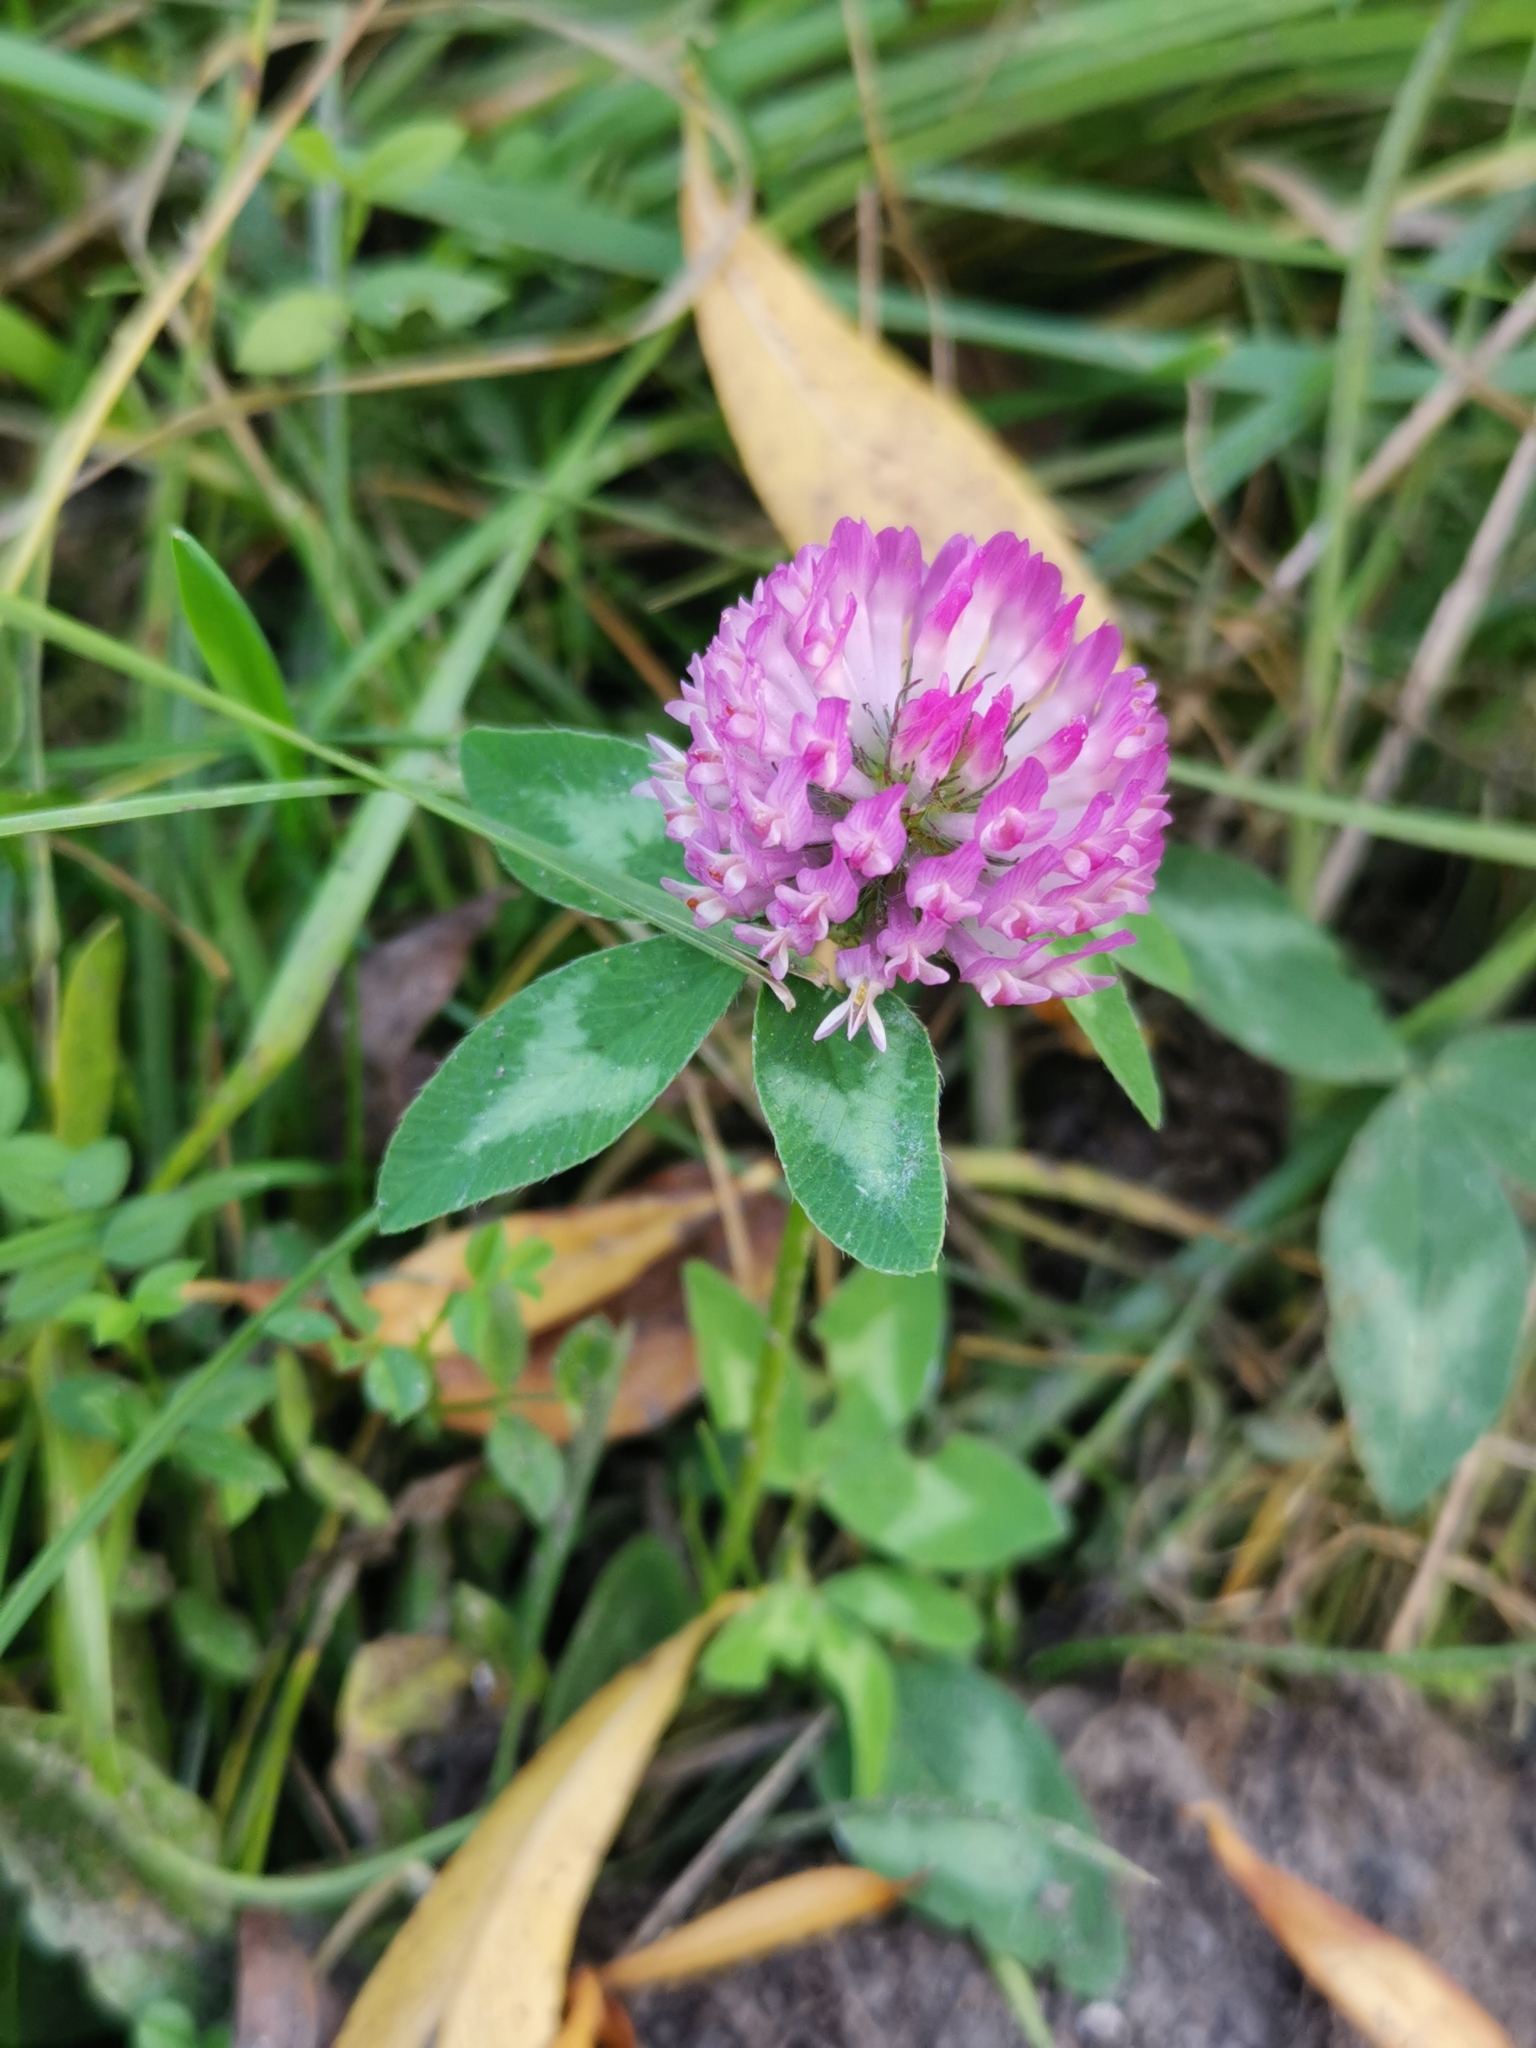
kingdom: Plantae
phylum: Tracheophyta
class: Magnoliopsida
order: Fabales
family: Fabaceae
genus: Trifolium
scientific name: Trifolium pratense
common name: Red clover
